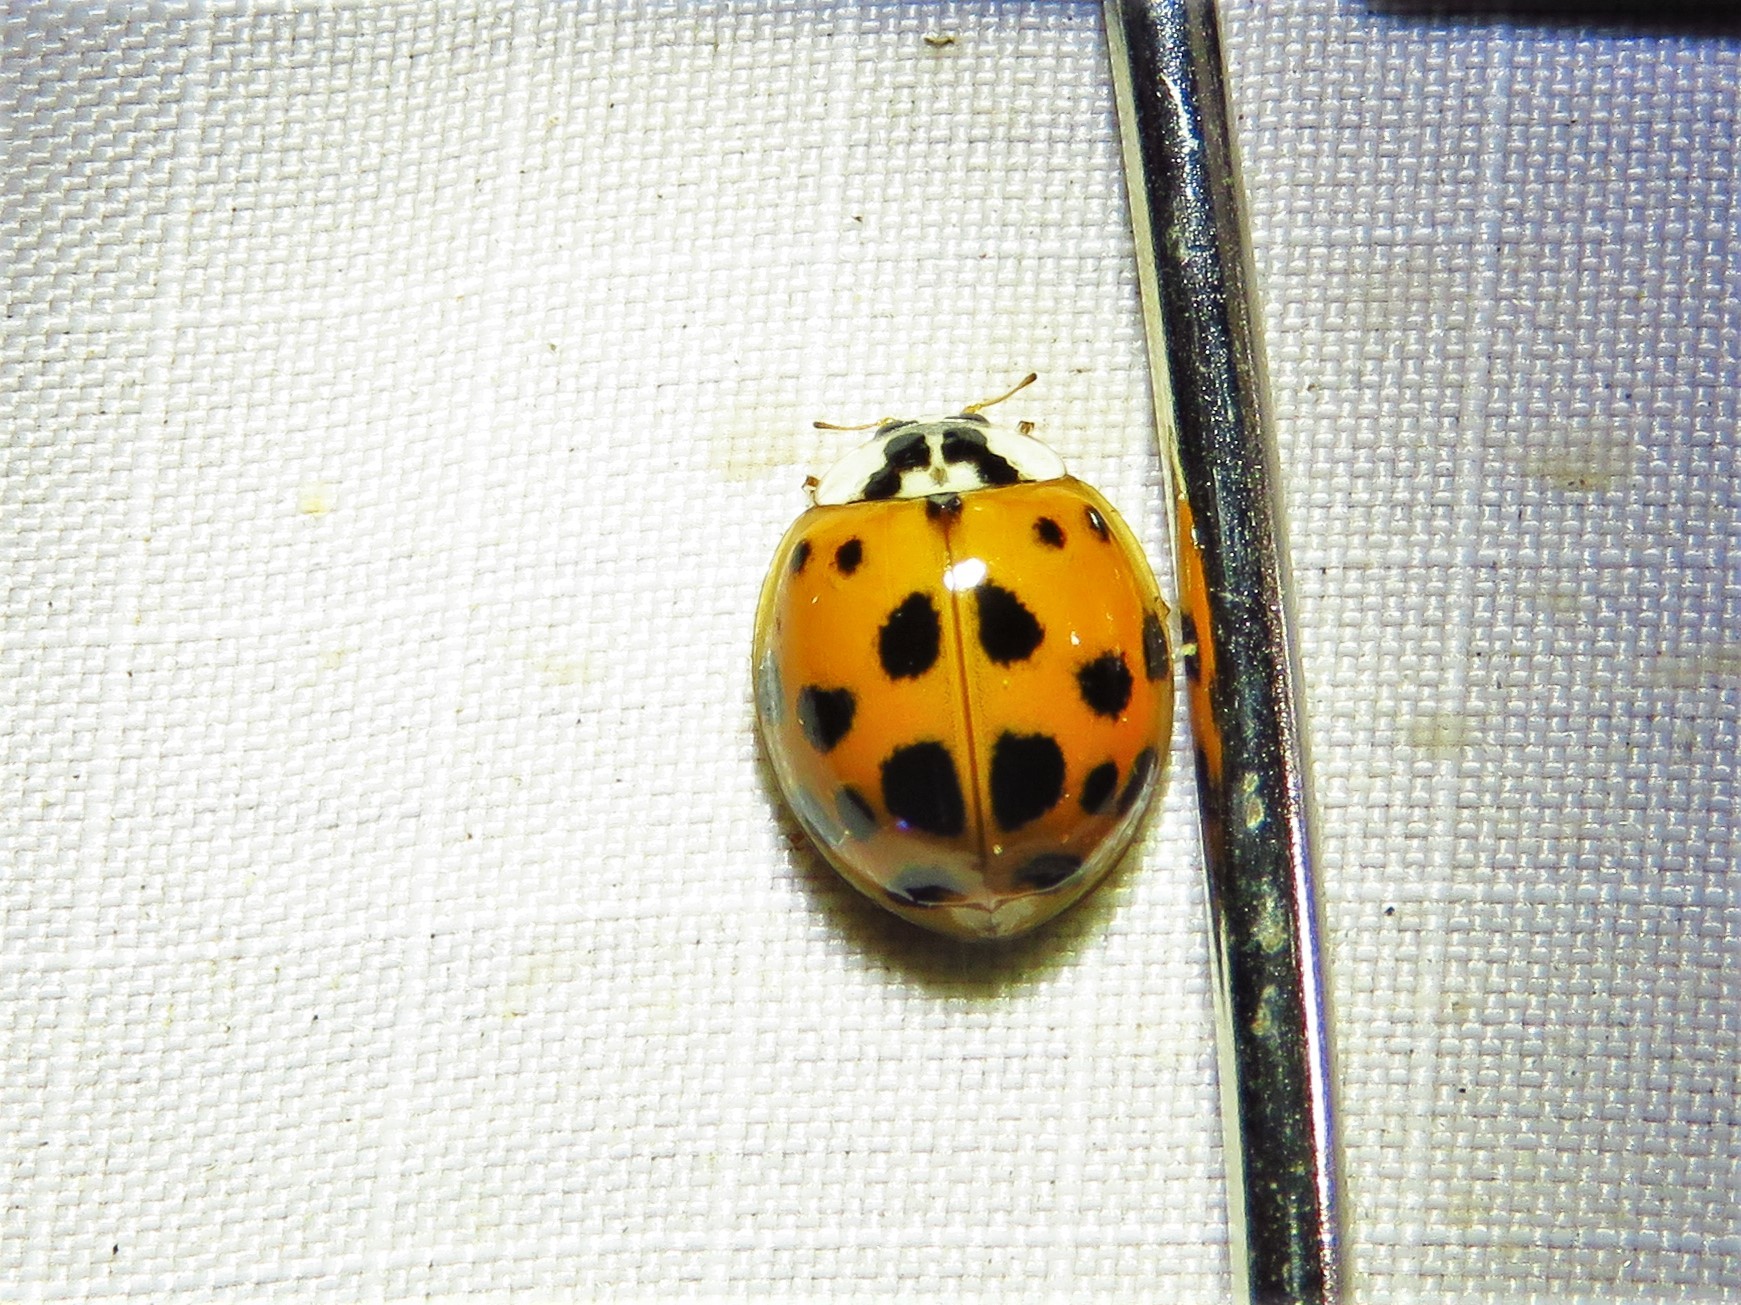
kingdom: Animalia
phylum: Arthropoda
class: Insecta
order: Coleoptera
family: Coccinellidae
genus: Harmonia
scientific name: Harmonia axyridis
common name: Harlequin ladybird
